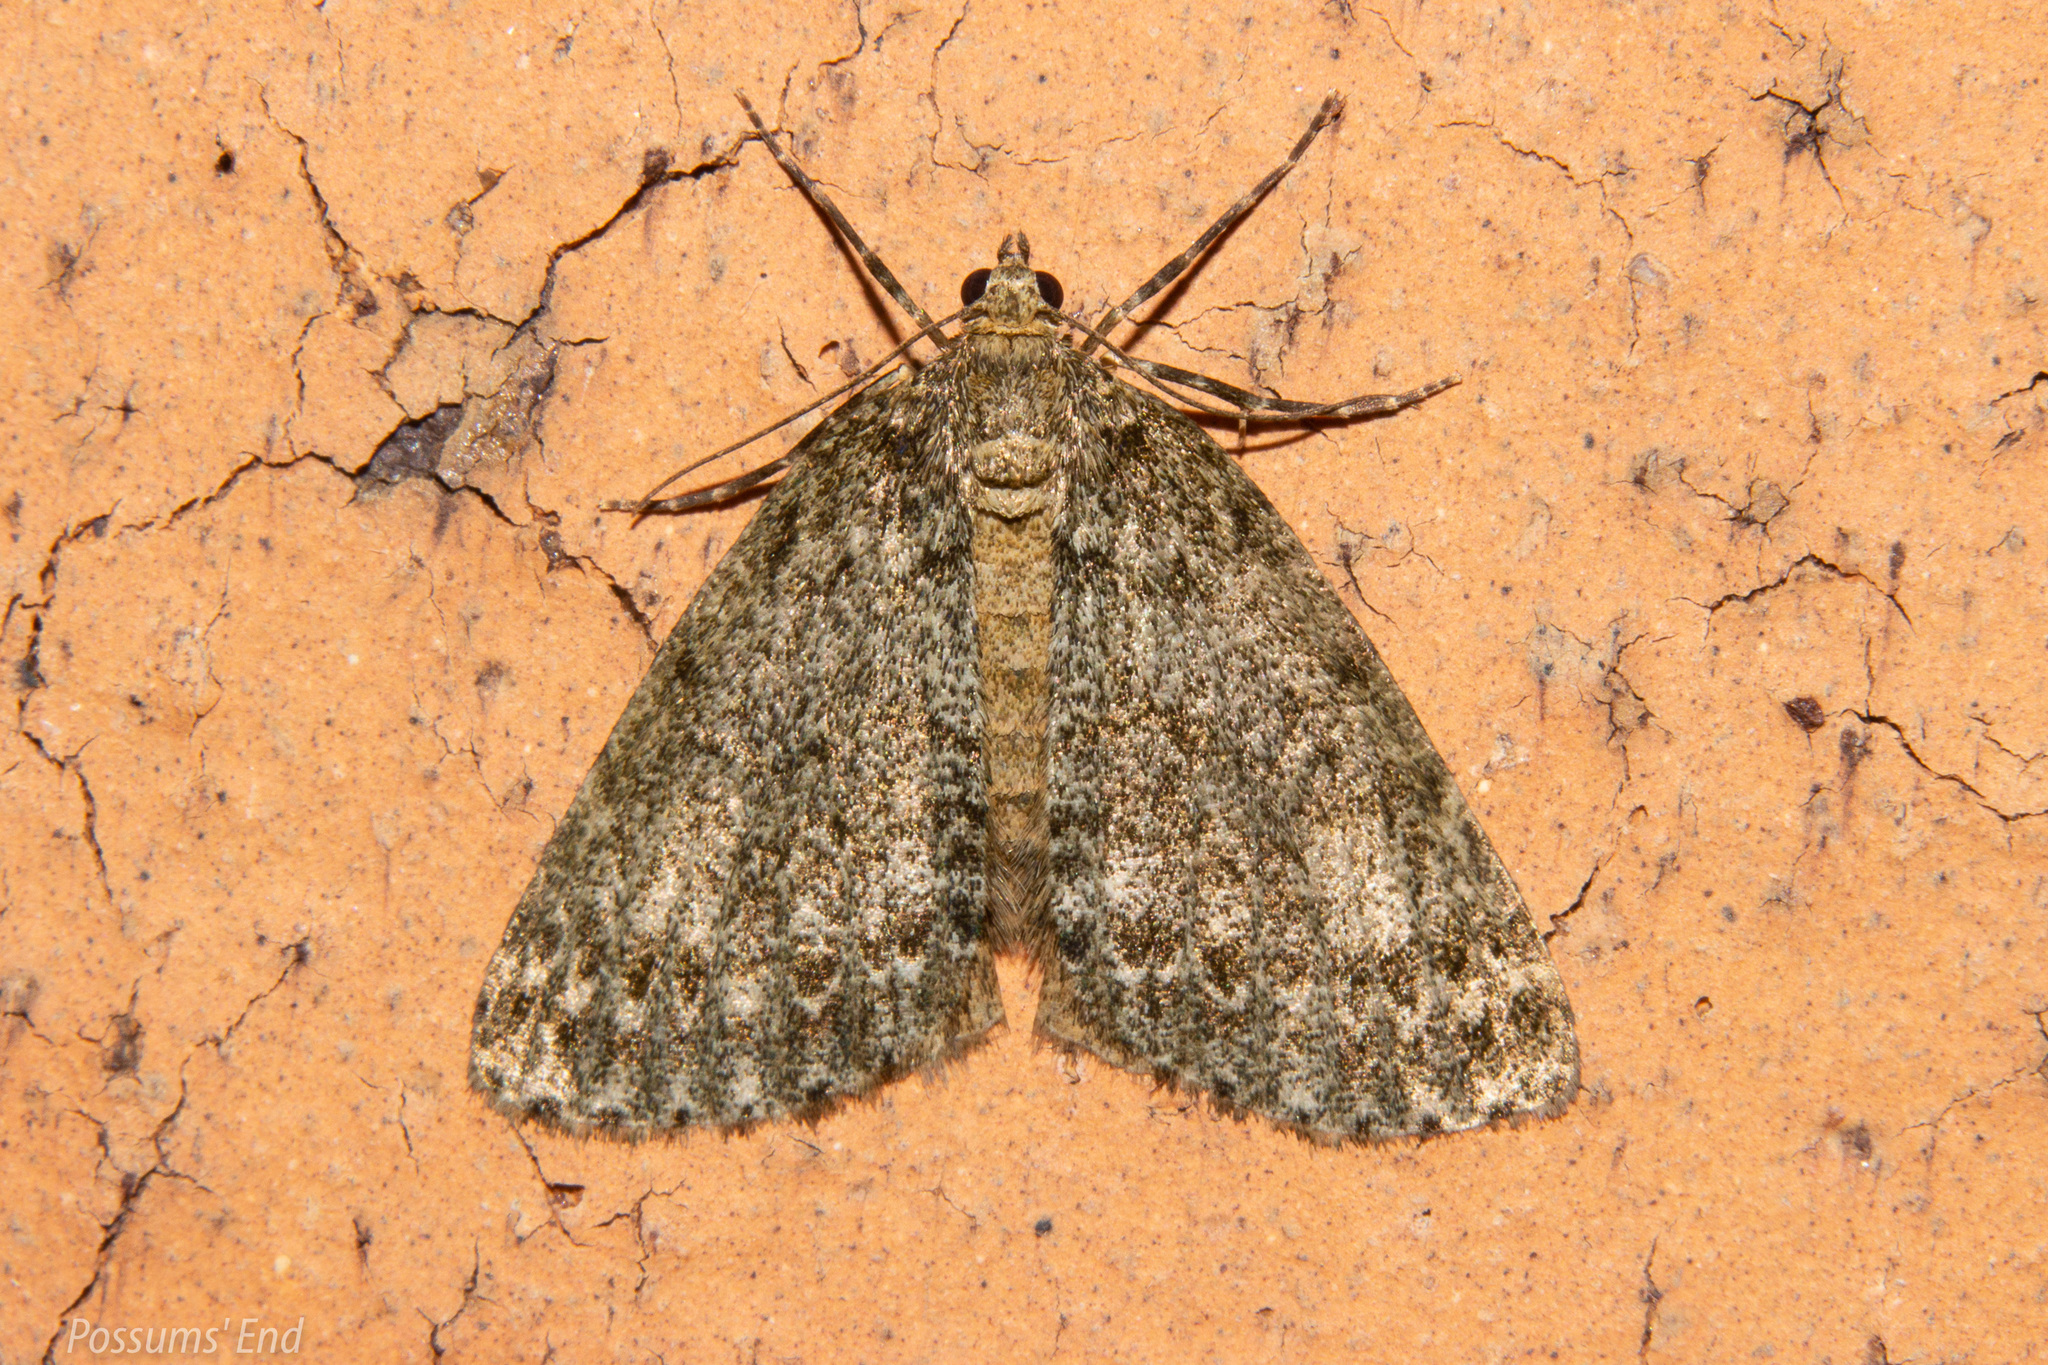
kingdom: Animalia
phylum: Arthropoda
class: Insecta
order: Lepidoptera
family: Geometridae
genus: Pseudocoremia
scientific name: Pseudocoremia indistincta
